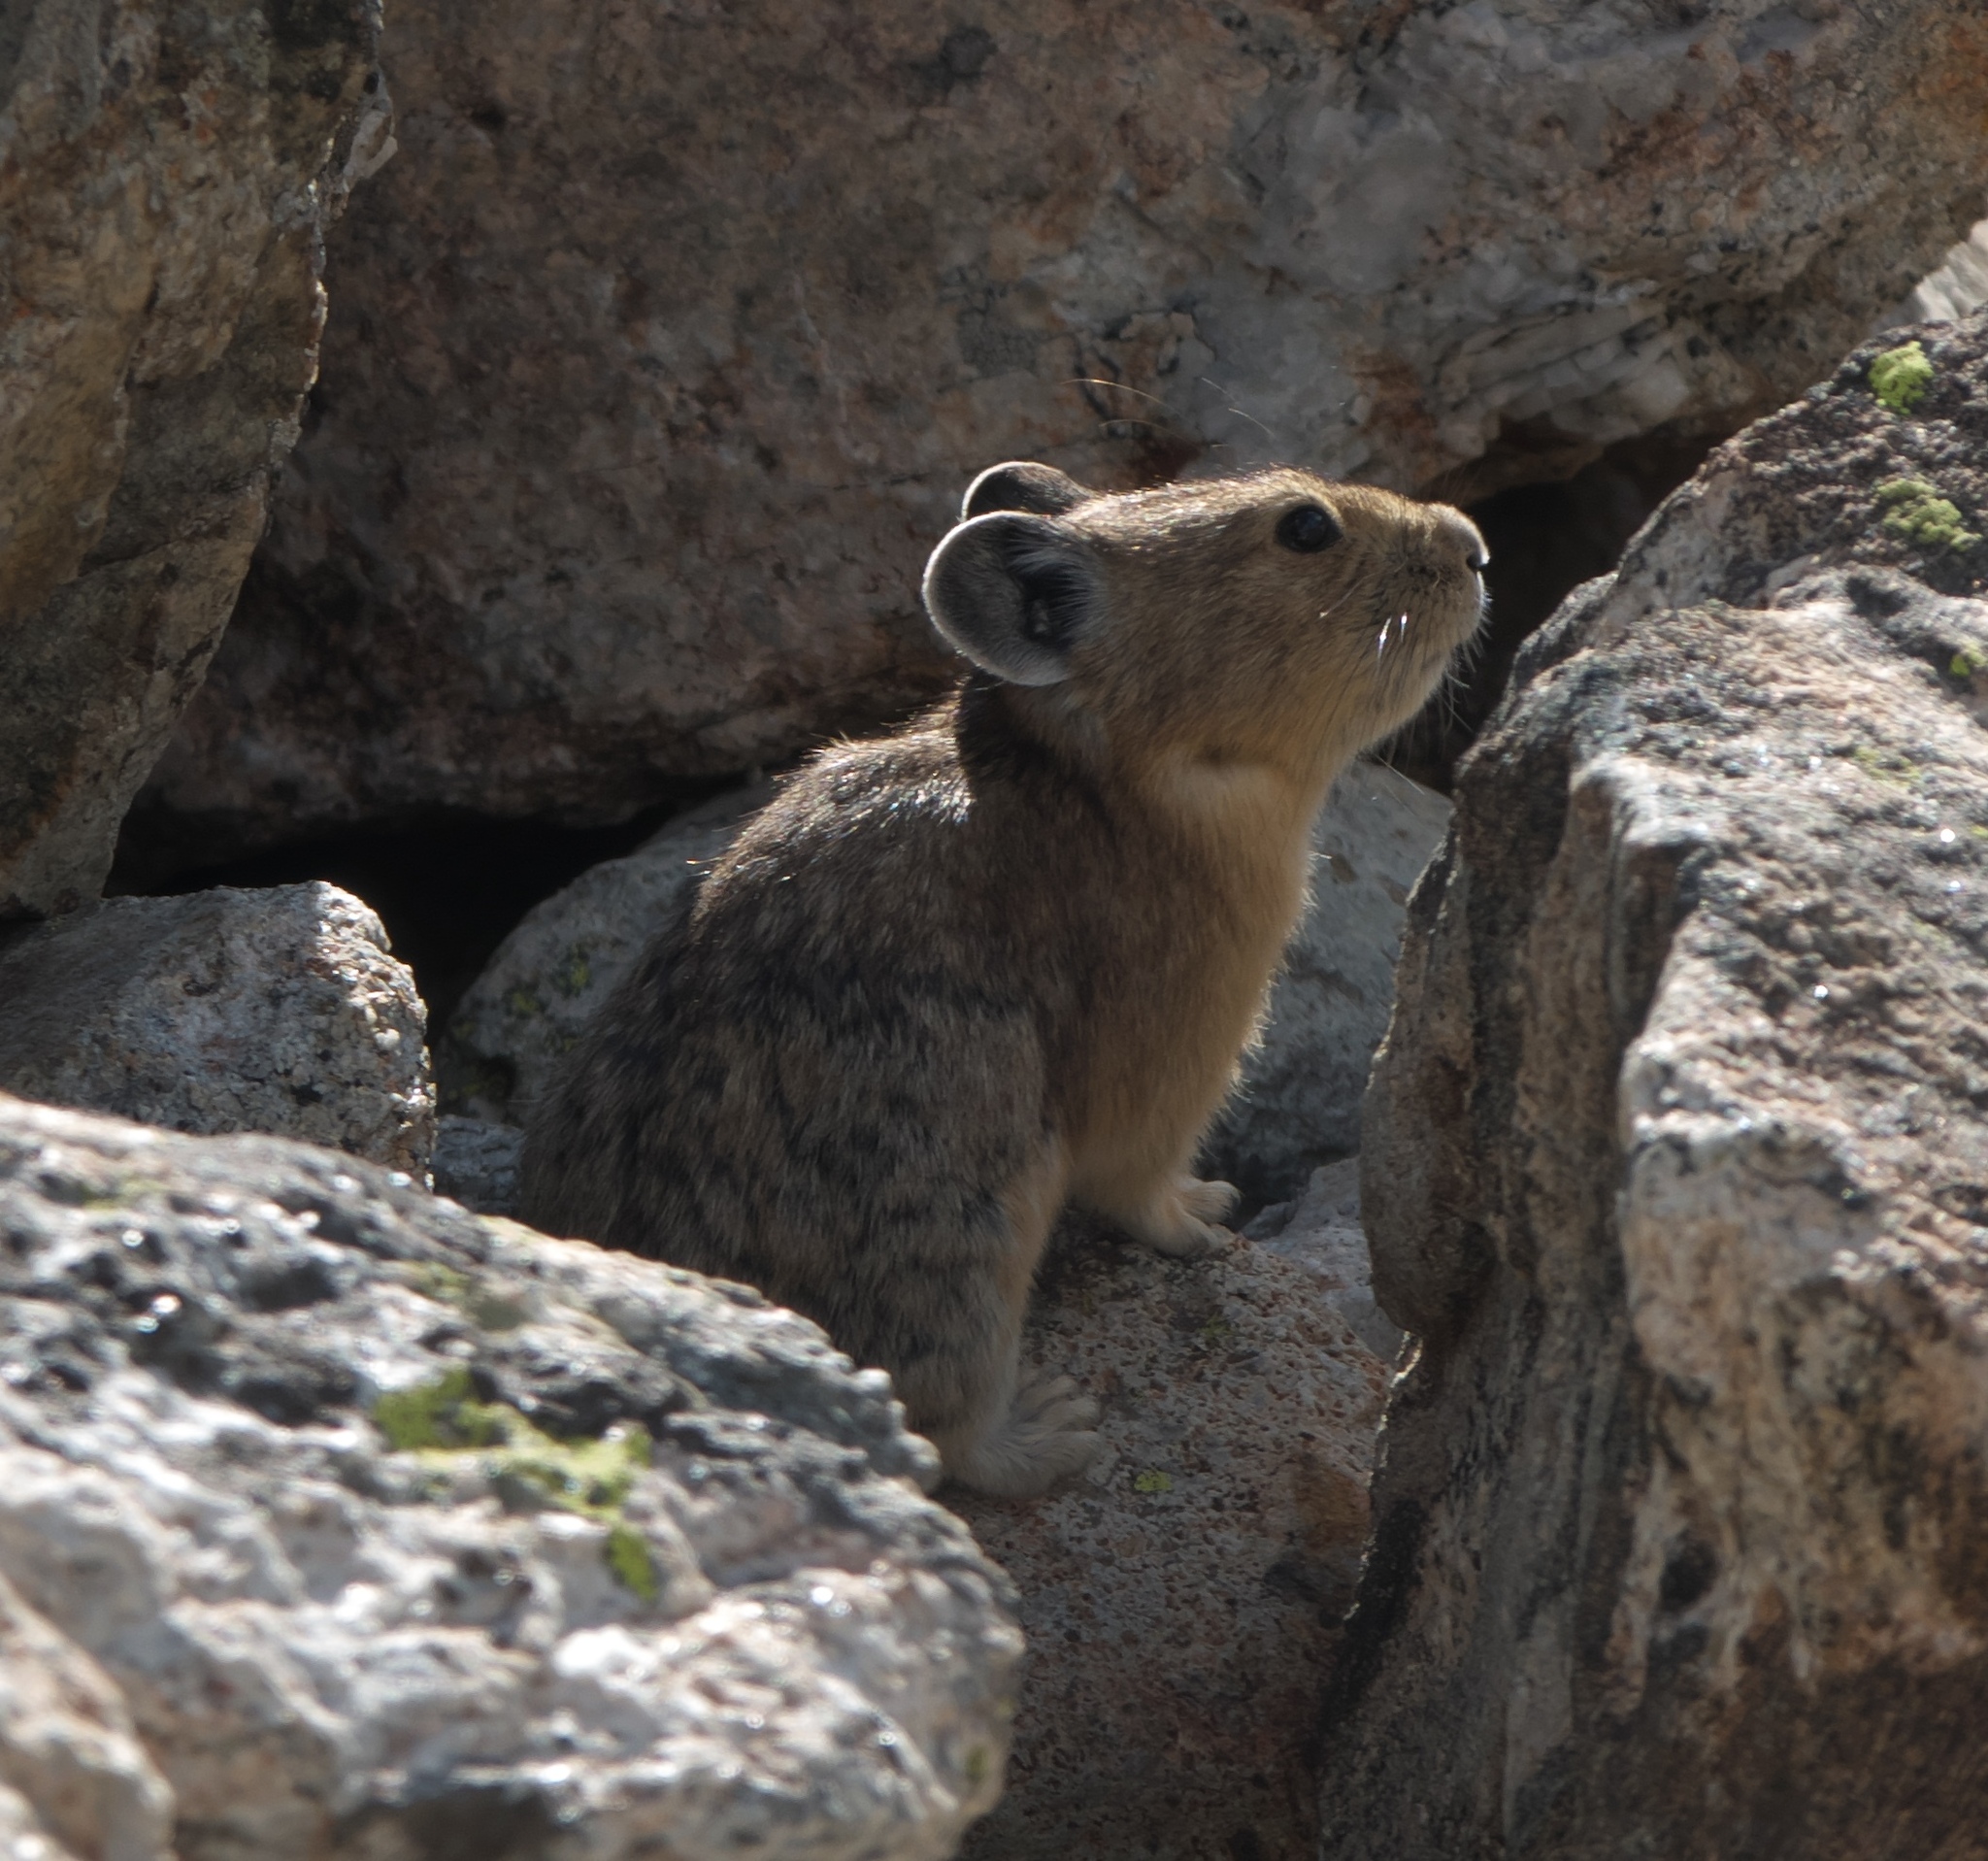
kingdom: Animalia
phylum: Chordata
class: Mammalia
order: Lagomorpha
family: Ochotonidae
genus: Ochotona
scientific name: Ochotona princeps
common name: American pika
